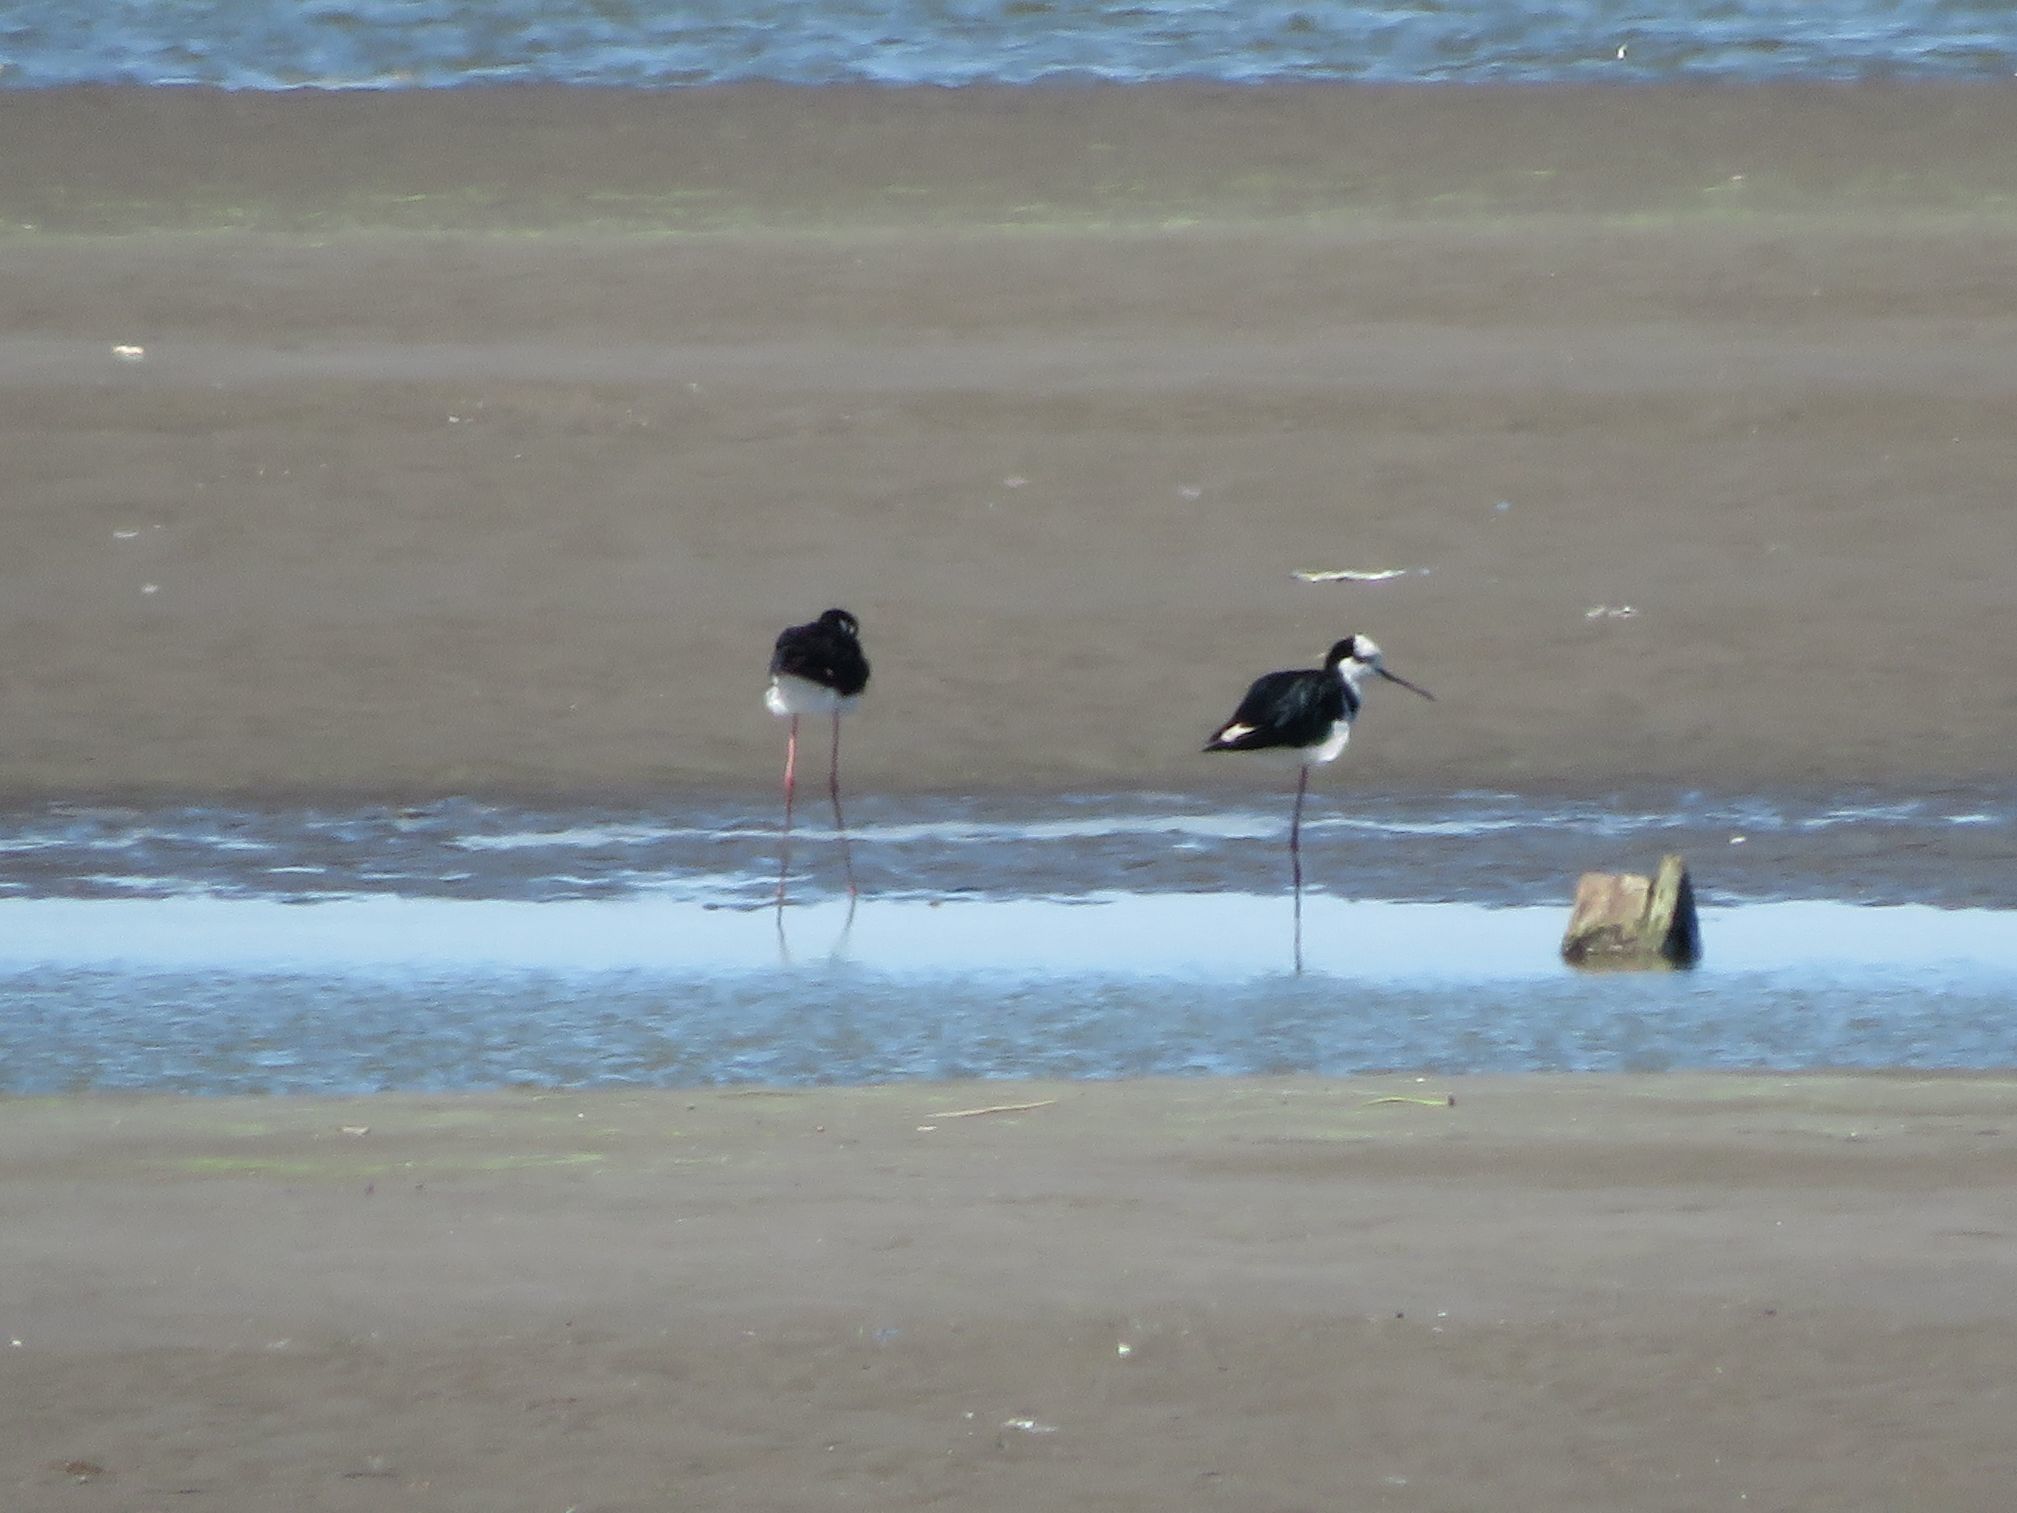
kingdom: Animalia
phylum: Chordata
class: Aves
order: Charadriiformes
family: Recurvirostridae
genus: Himantopus
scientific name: Himantopus mexicanus
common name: Black-necked stilt
